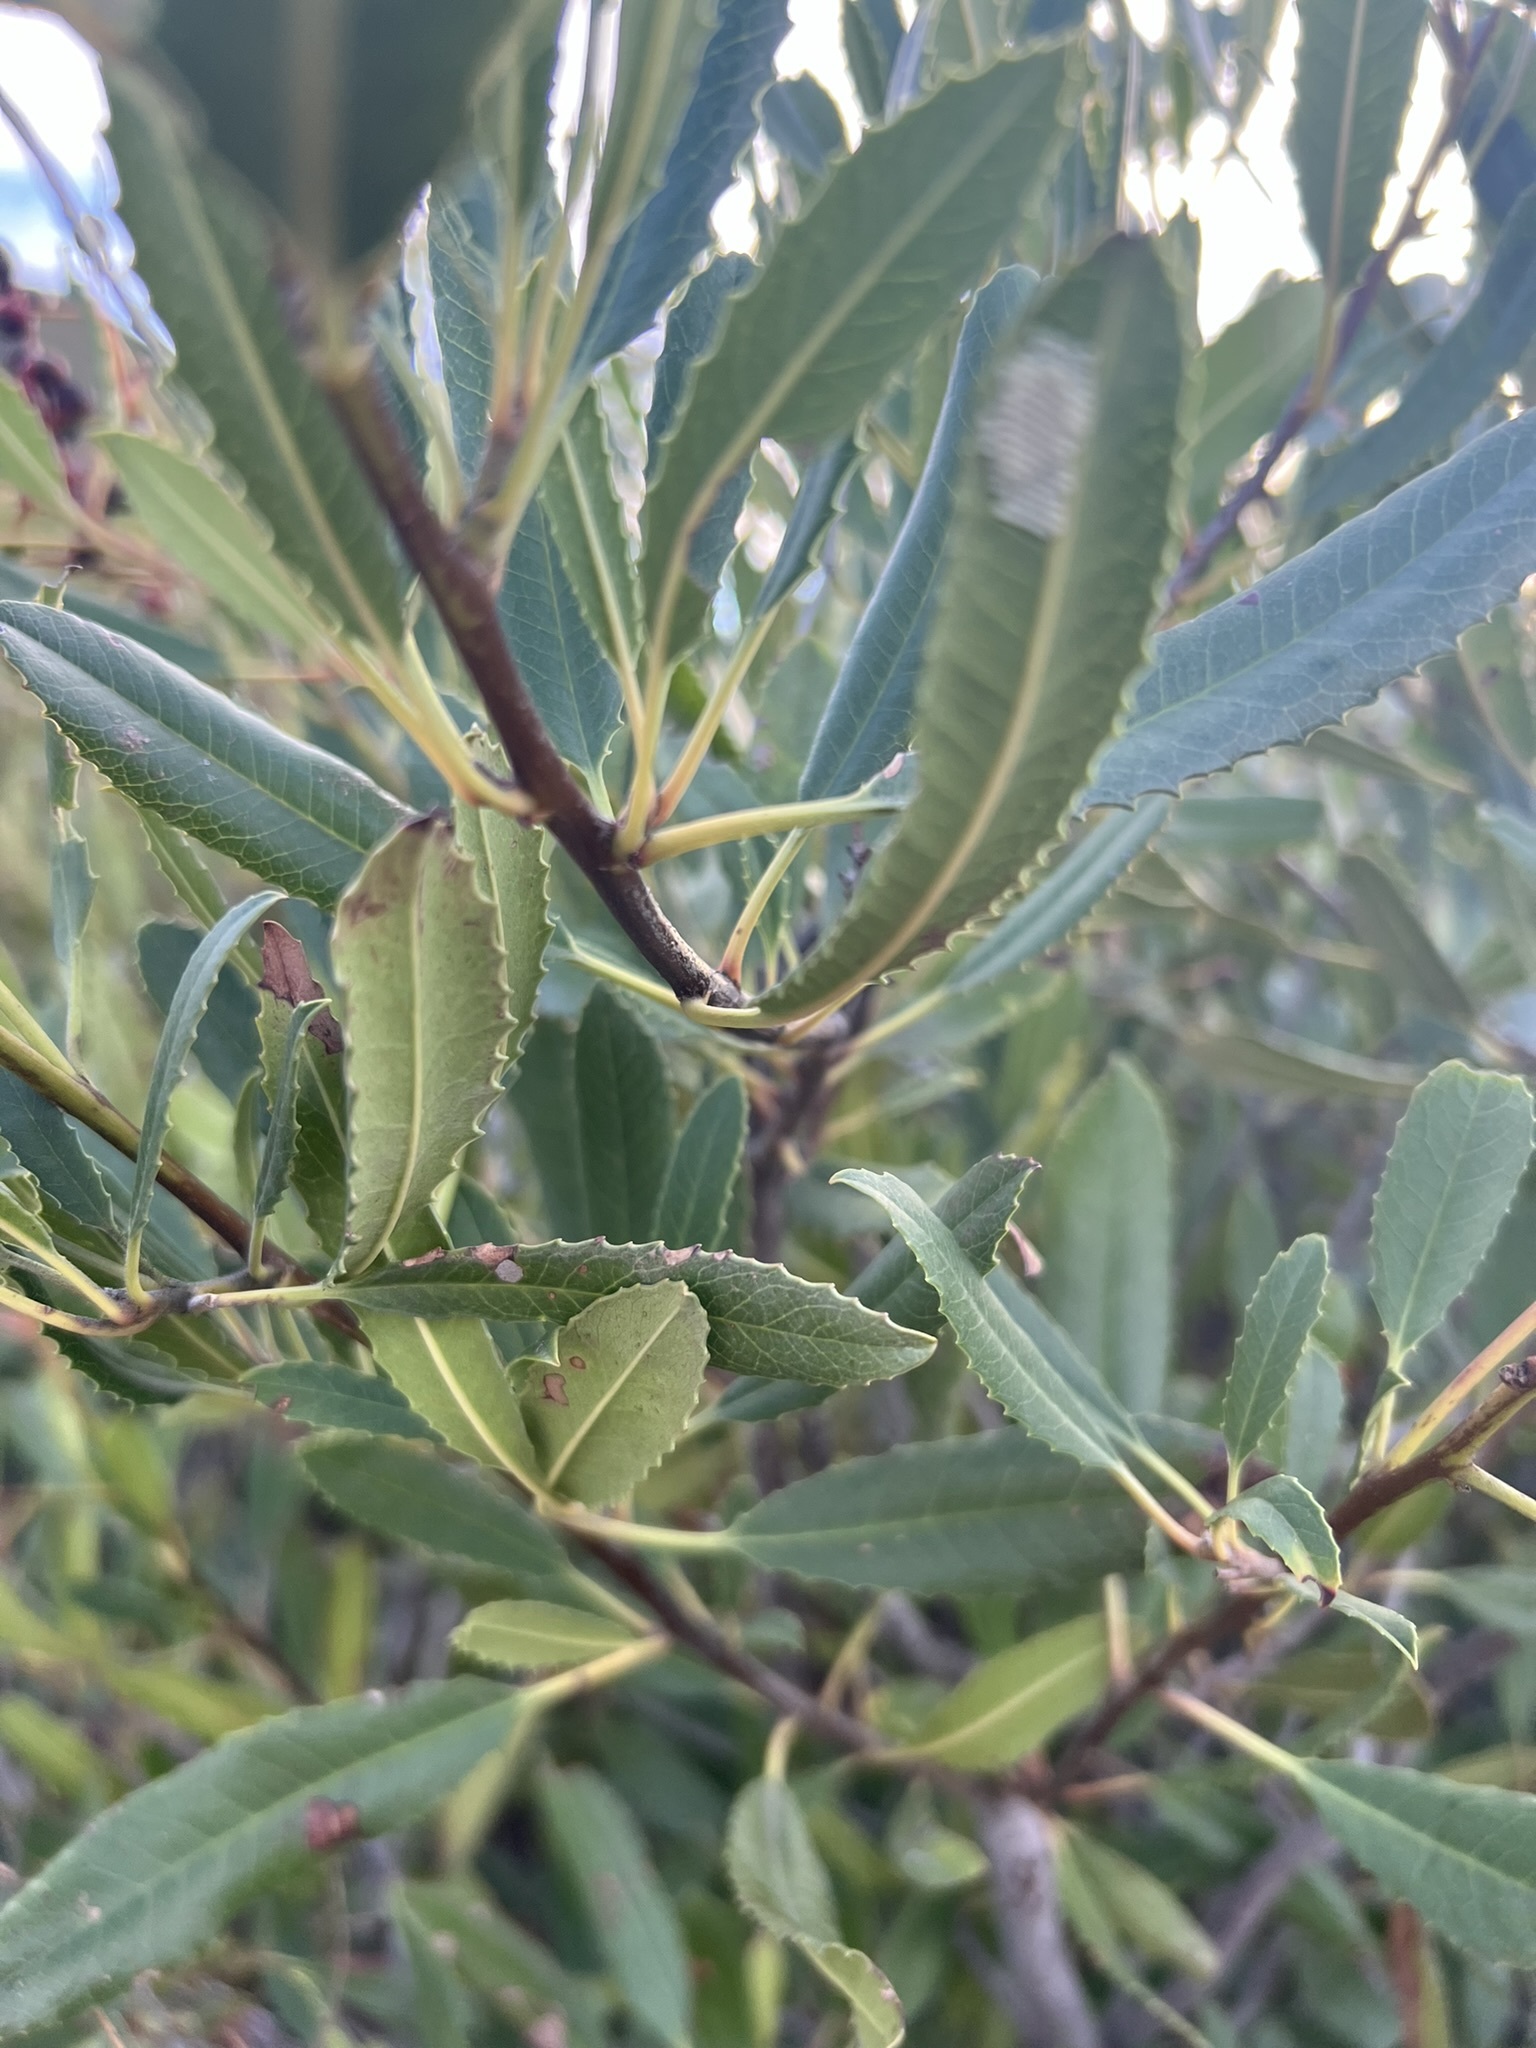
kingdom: Plantae
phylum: Tracheophyta
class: Magnoliopsida
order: Rosales
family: Rosaceae
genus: Heteromeles
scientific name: Heteromeles arbutifolia
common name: California-holly
